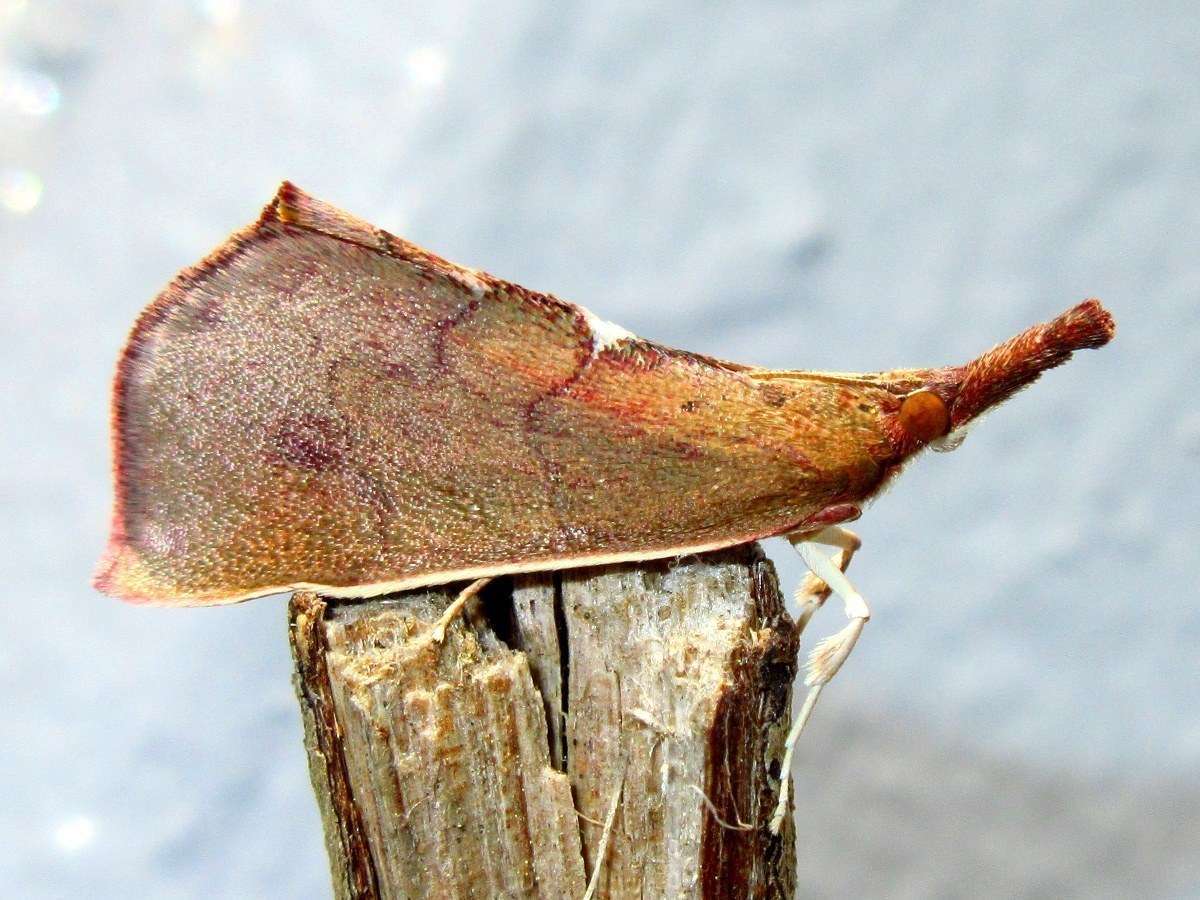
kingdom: Animalia
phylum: Arthropoda
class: Insecta
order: Lepidoptera
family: Pyralidae
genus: Anemosa
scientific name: Anemosa exanthes
